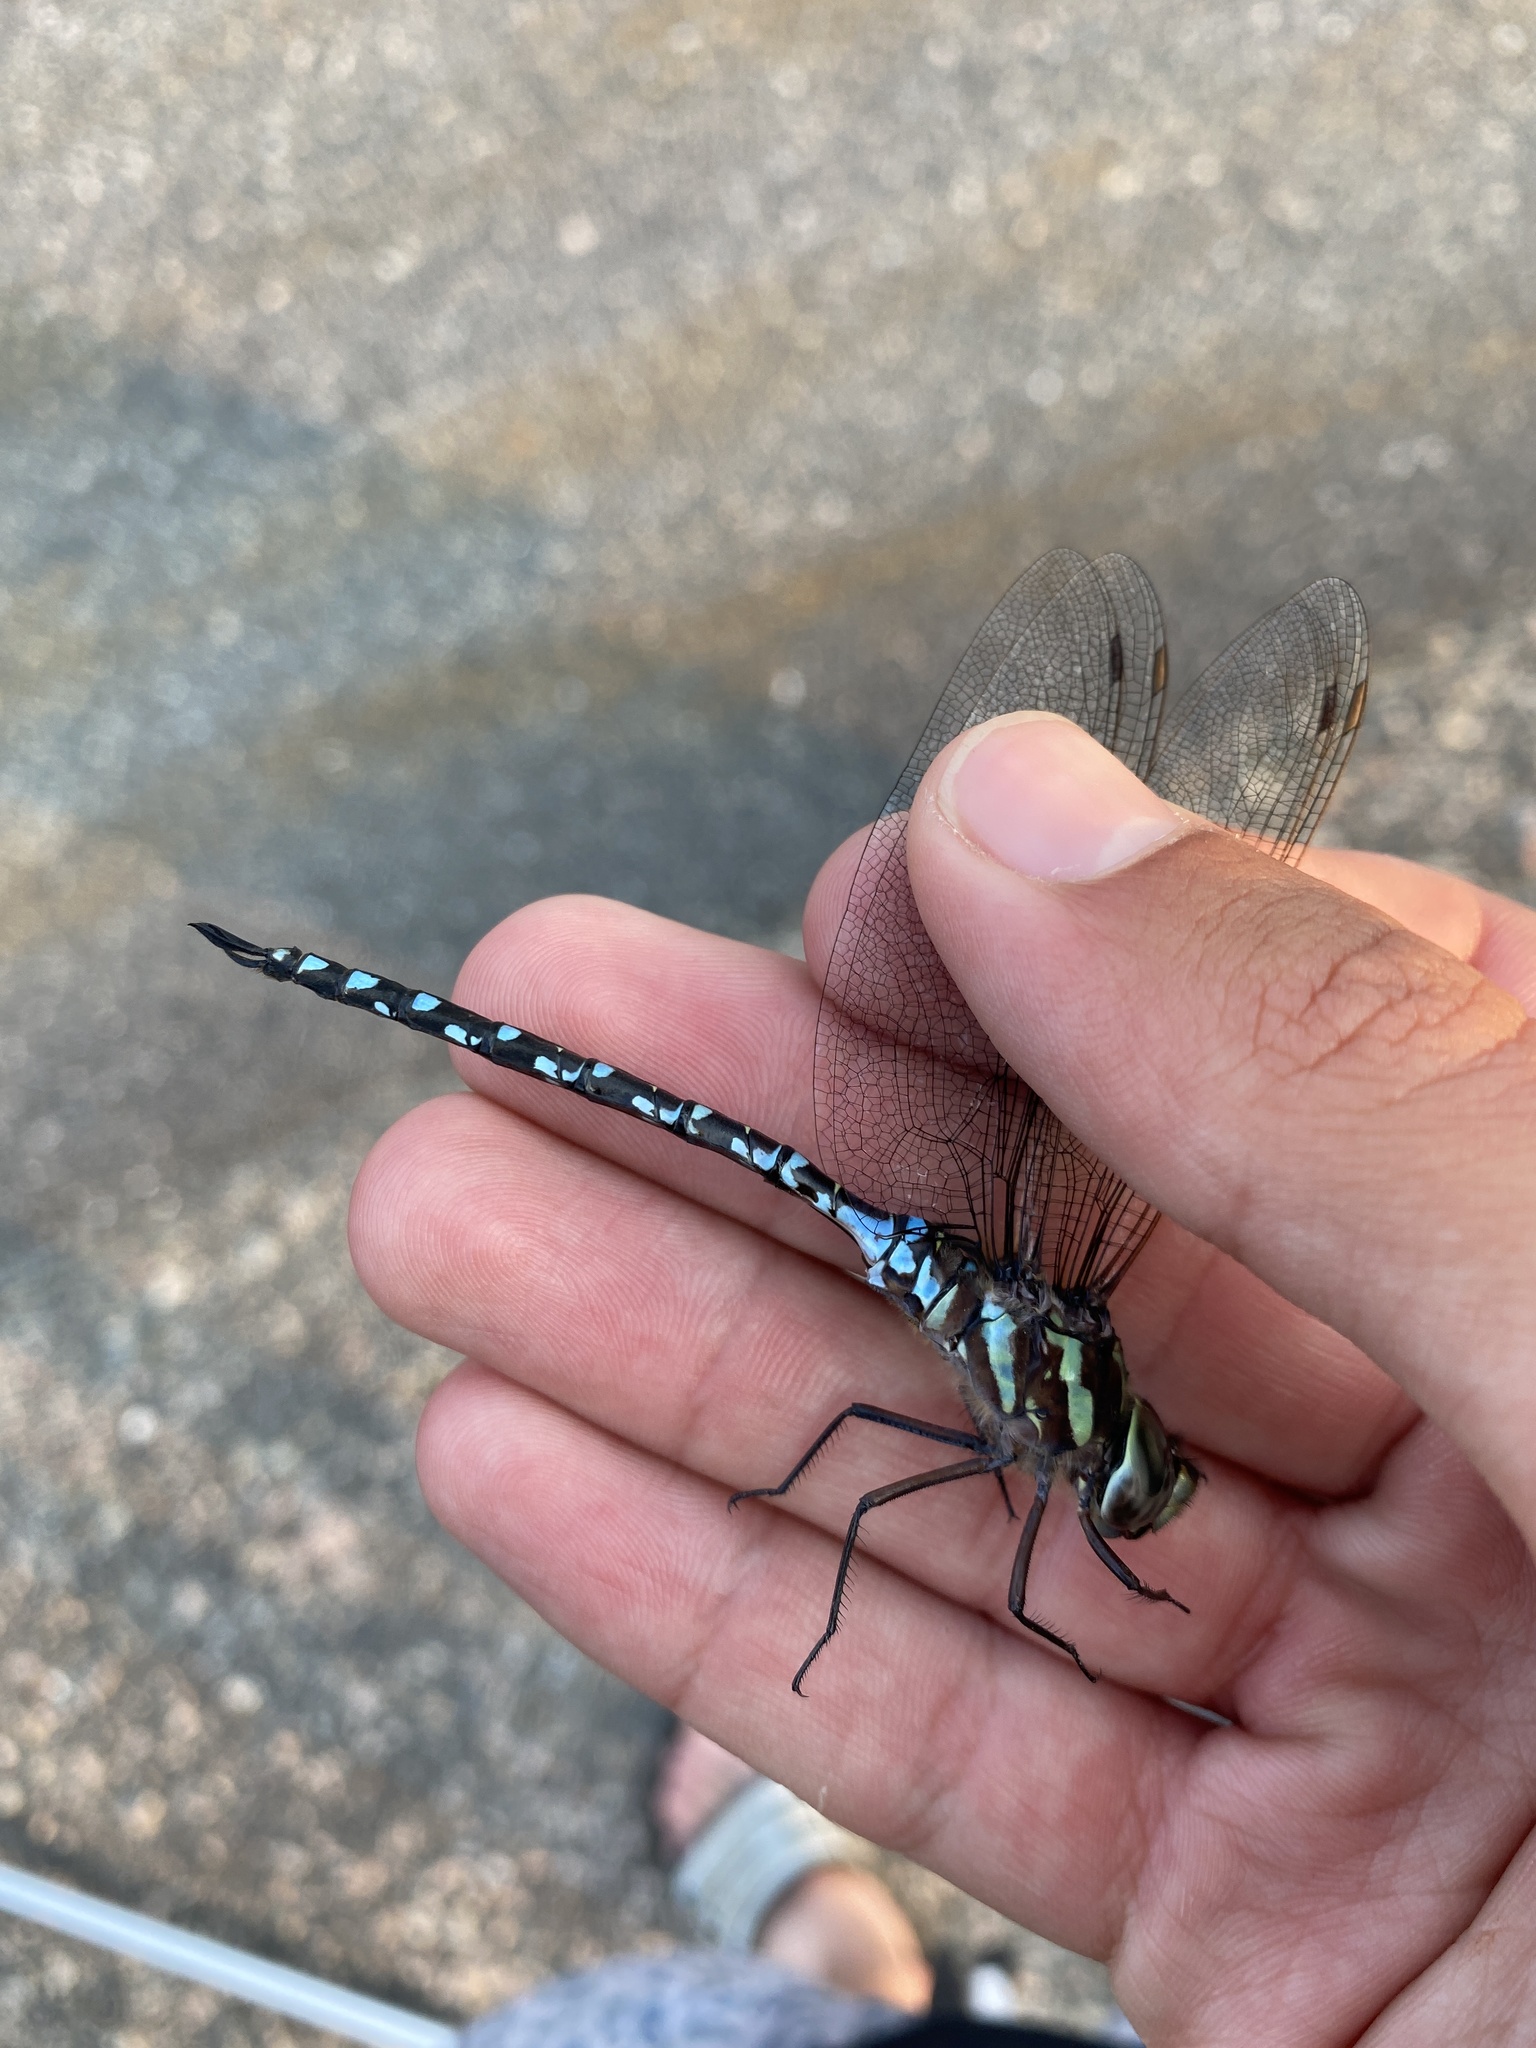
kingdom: Animalia
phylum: Arthropoda
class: Insecta
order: Odonata
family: Aeshnidae
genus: Aeshna
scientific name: Aeshna verticalis
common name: Green-striped darner
